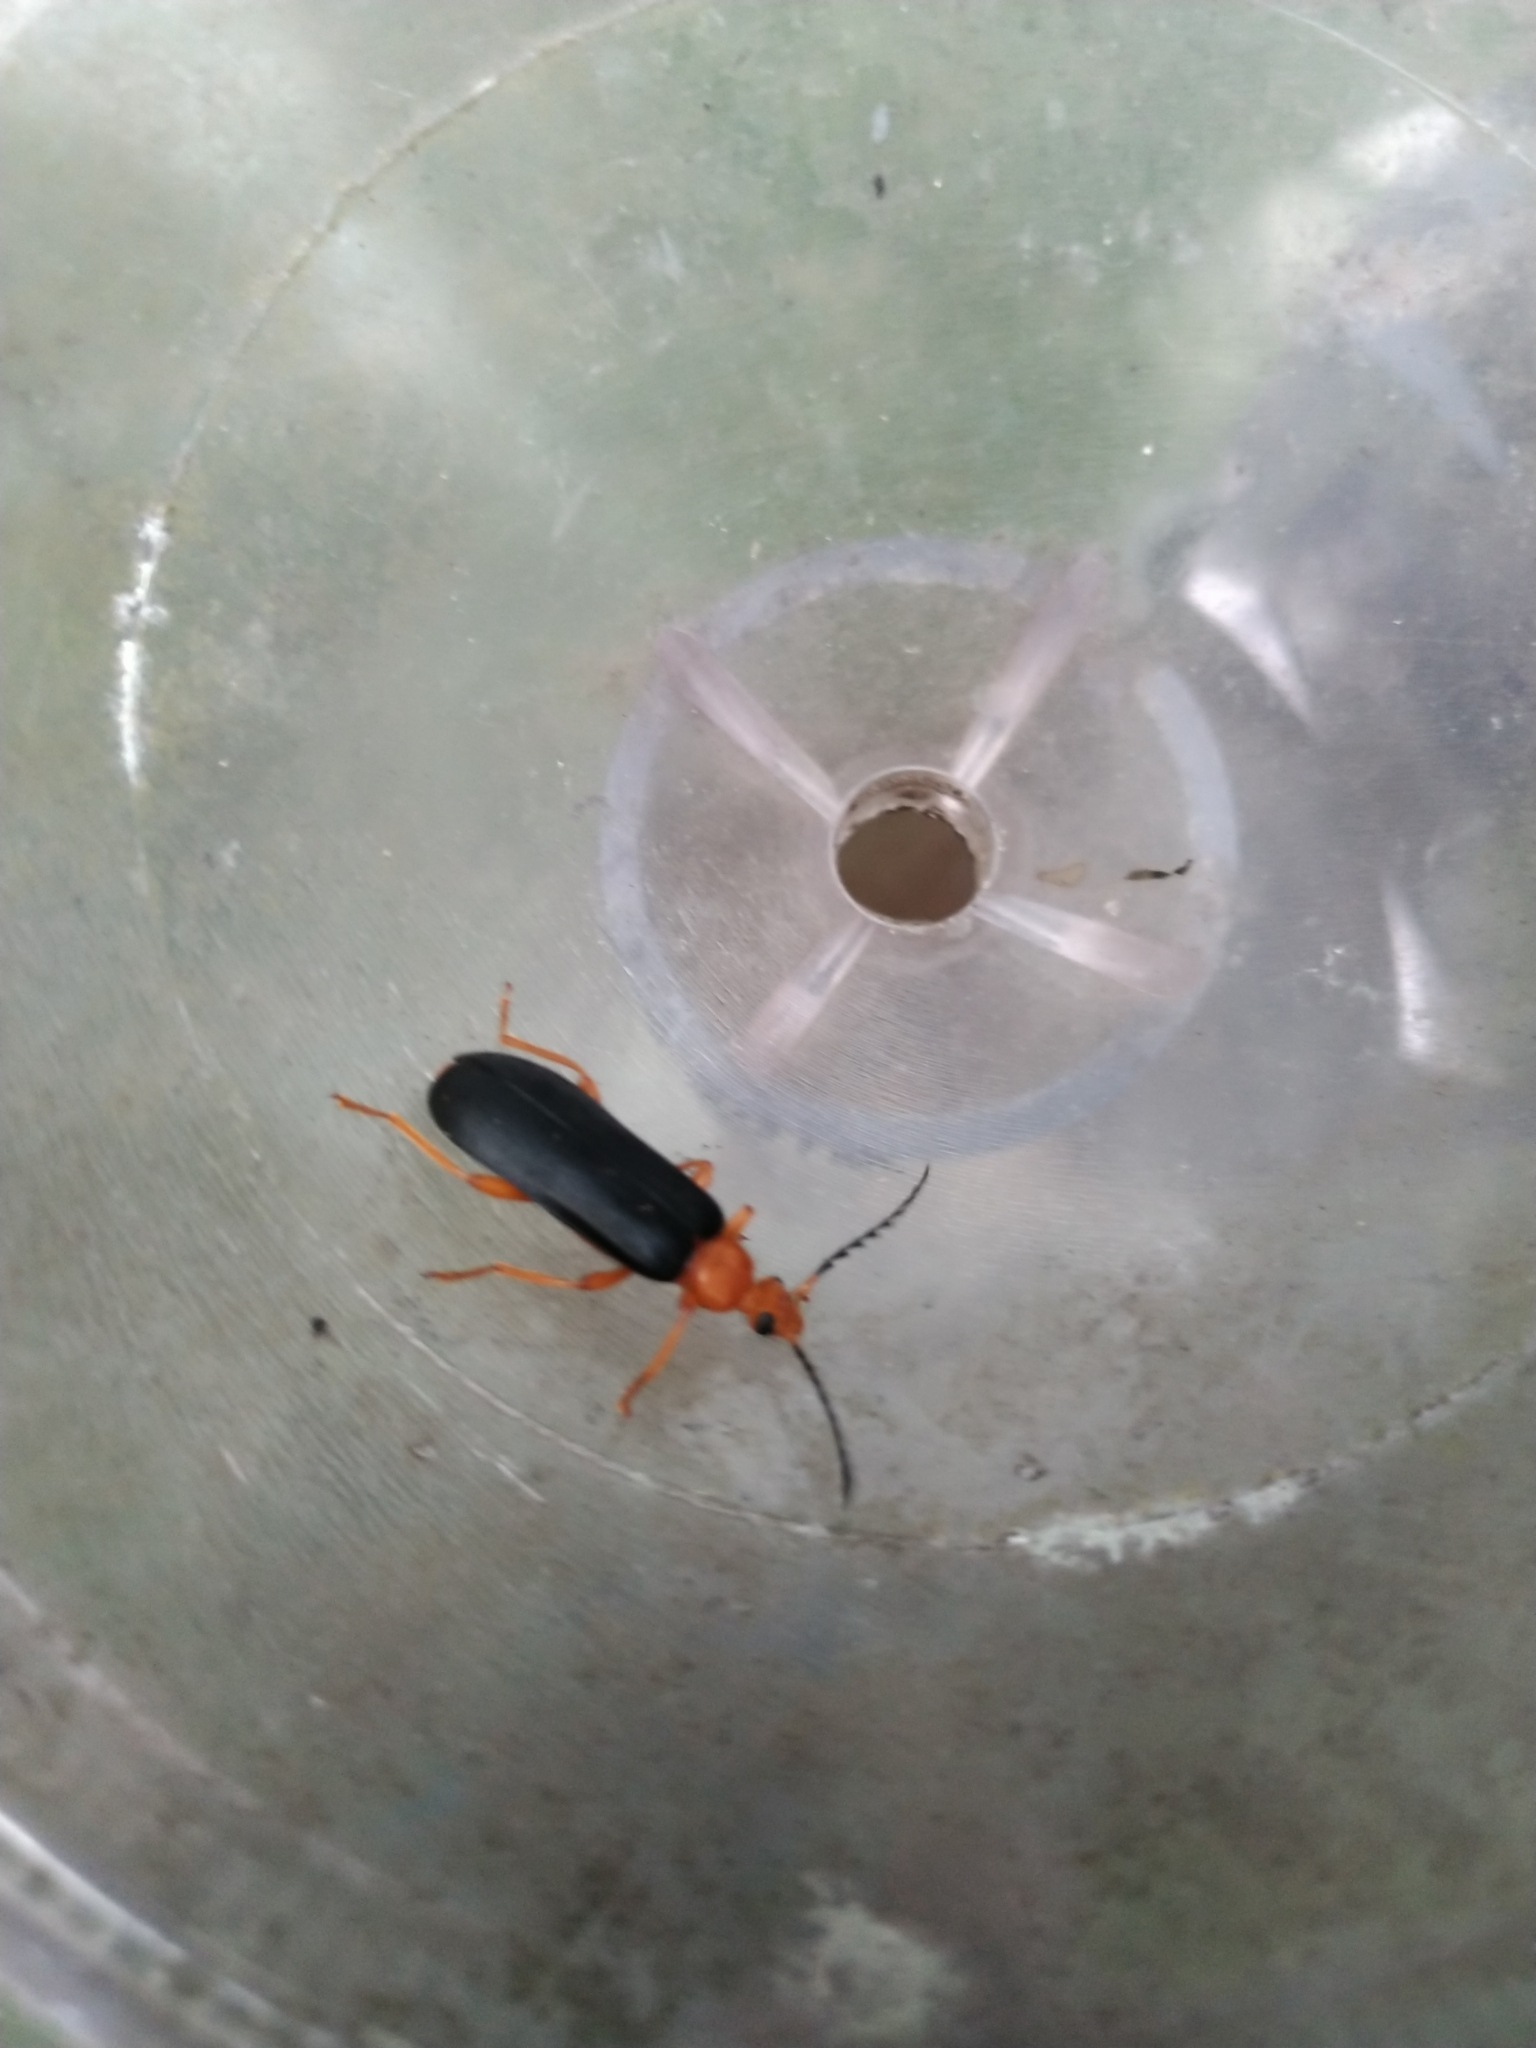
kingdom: Animalia
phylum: Arthropoda
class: Insecta
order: Coleoptera
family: Pyrochroidae
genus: Neopyrochroa
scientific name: Neopyrochroa flabellata
